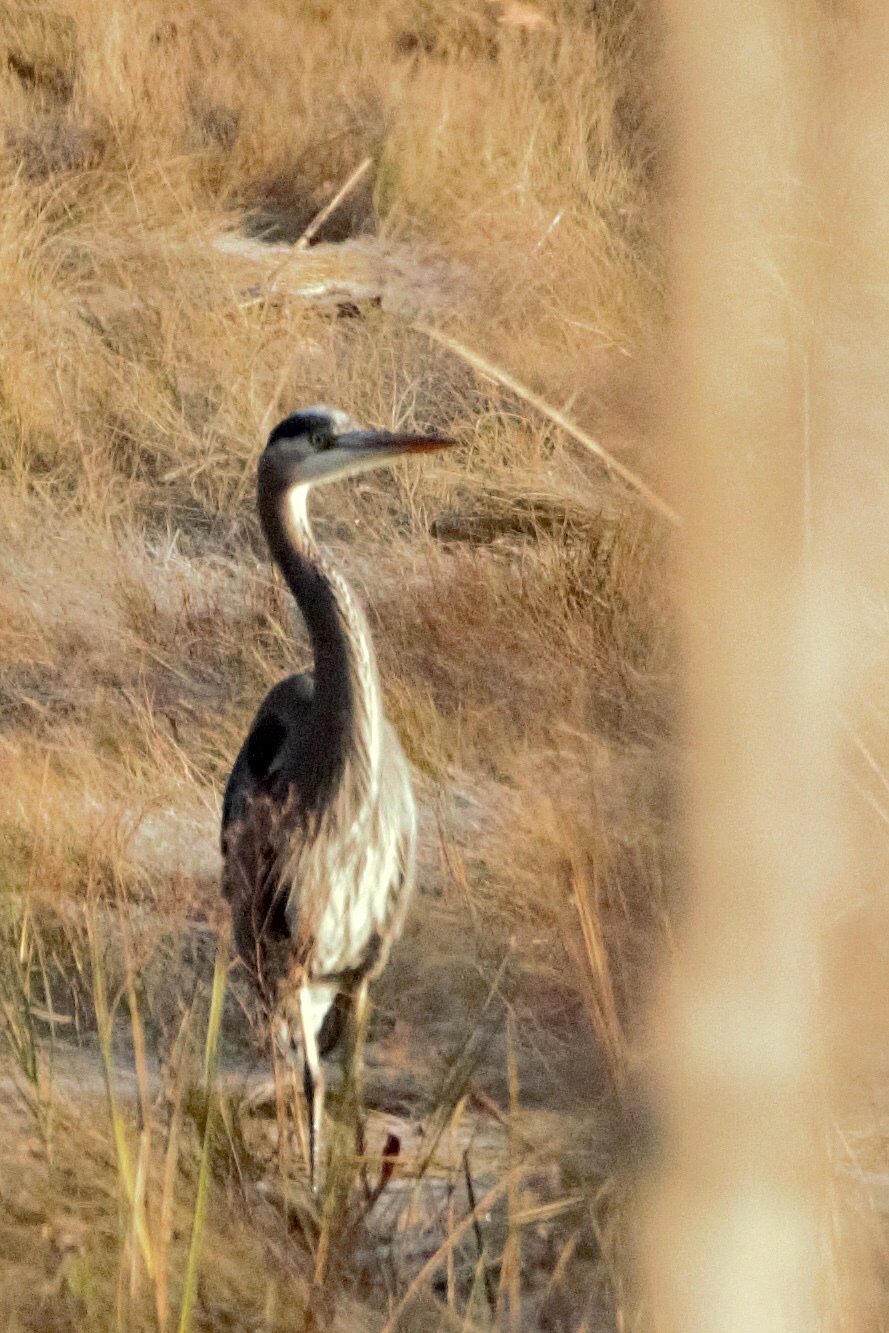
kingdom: Animalia
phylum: Chordata
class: Aves
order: Pelecaniformes
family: Ardeidae
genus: Ardea
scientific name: Ardea herodias
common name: Great blue heron
